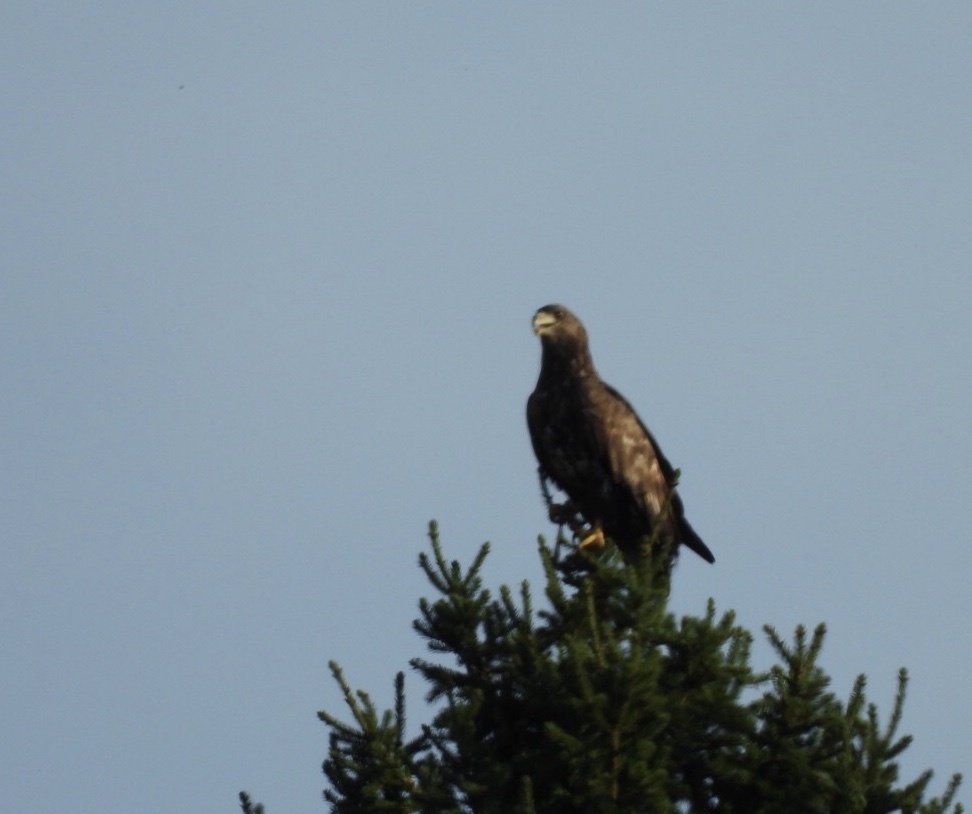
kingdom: Animalia
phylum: Chordata
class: Aves
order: Accipitriformes
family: Accipitridae
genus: Haliaeetus
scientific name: Haliaeetus albicilla
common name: White-tailed eagle
